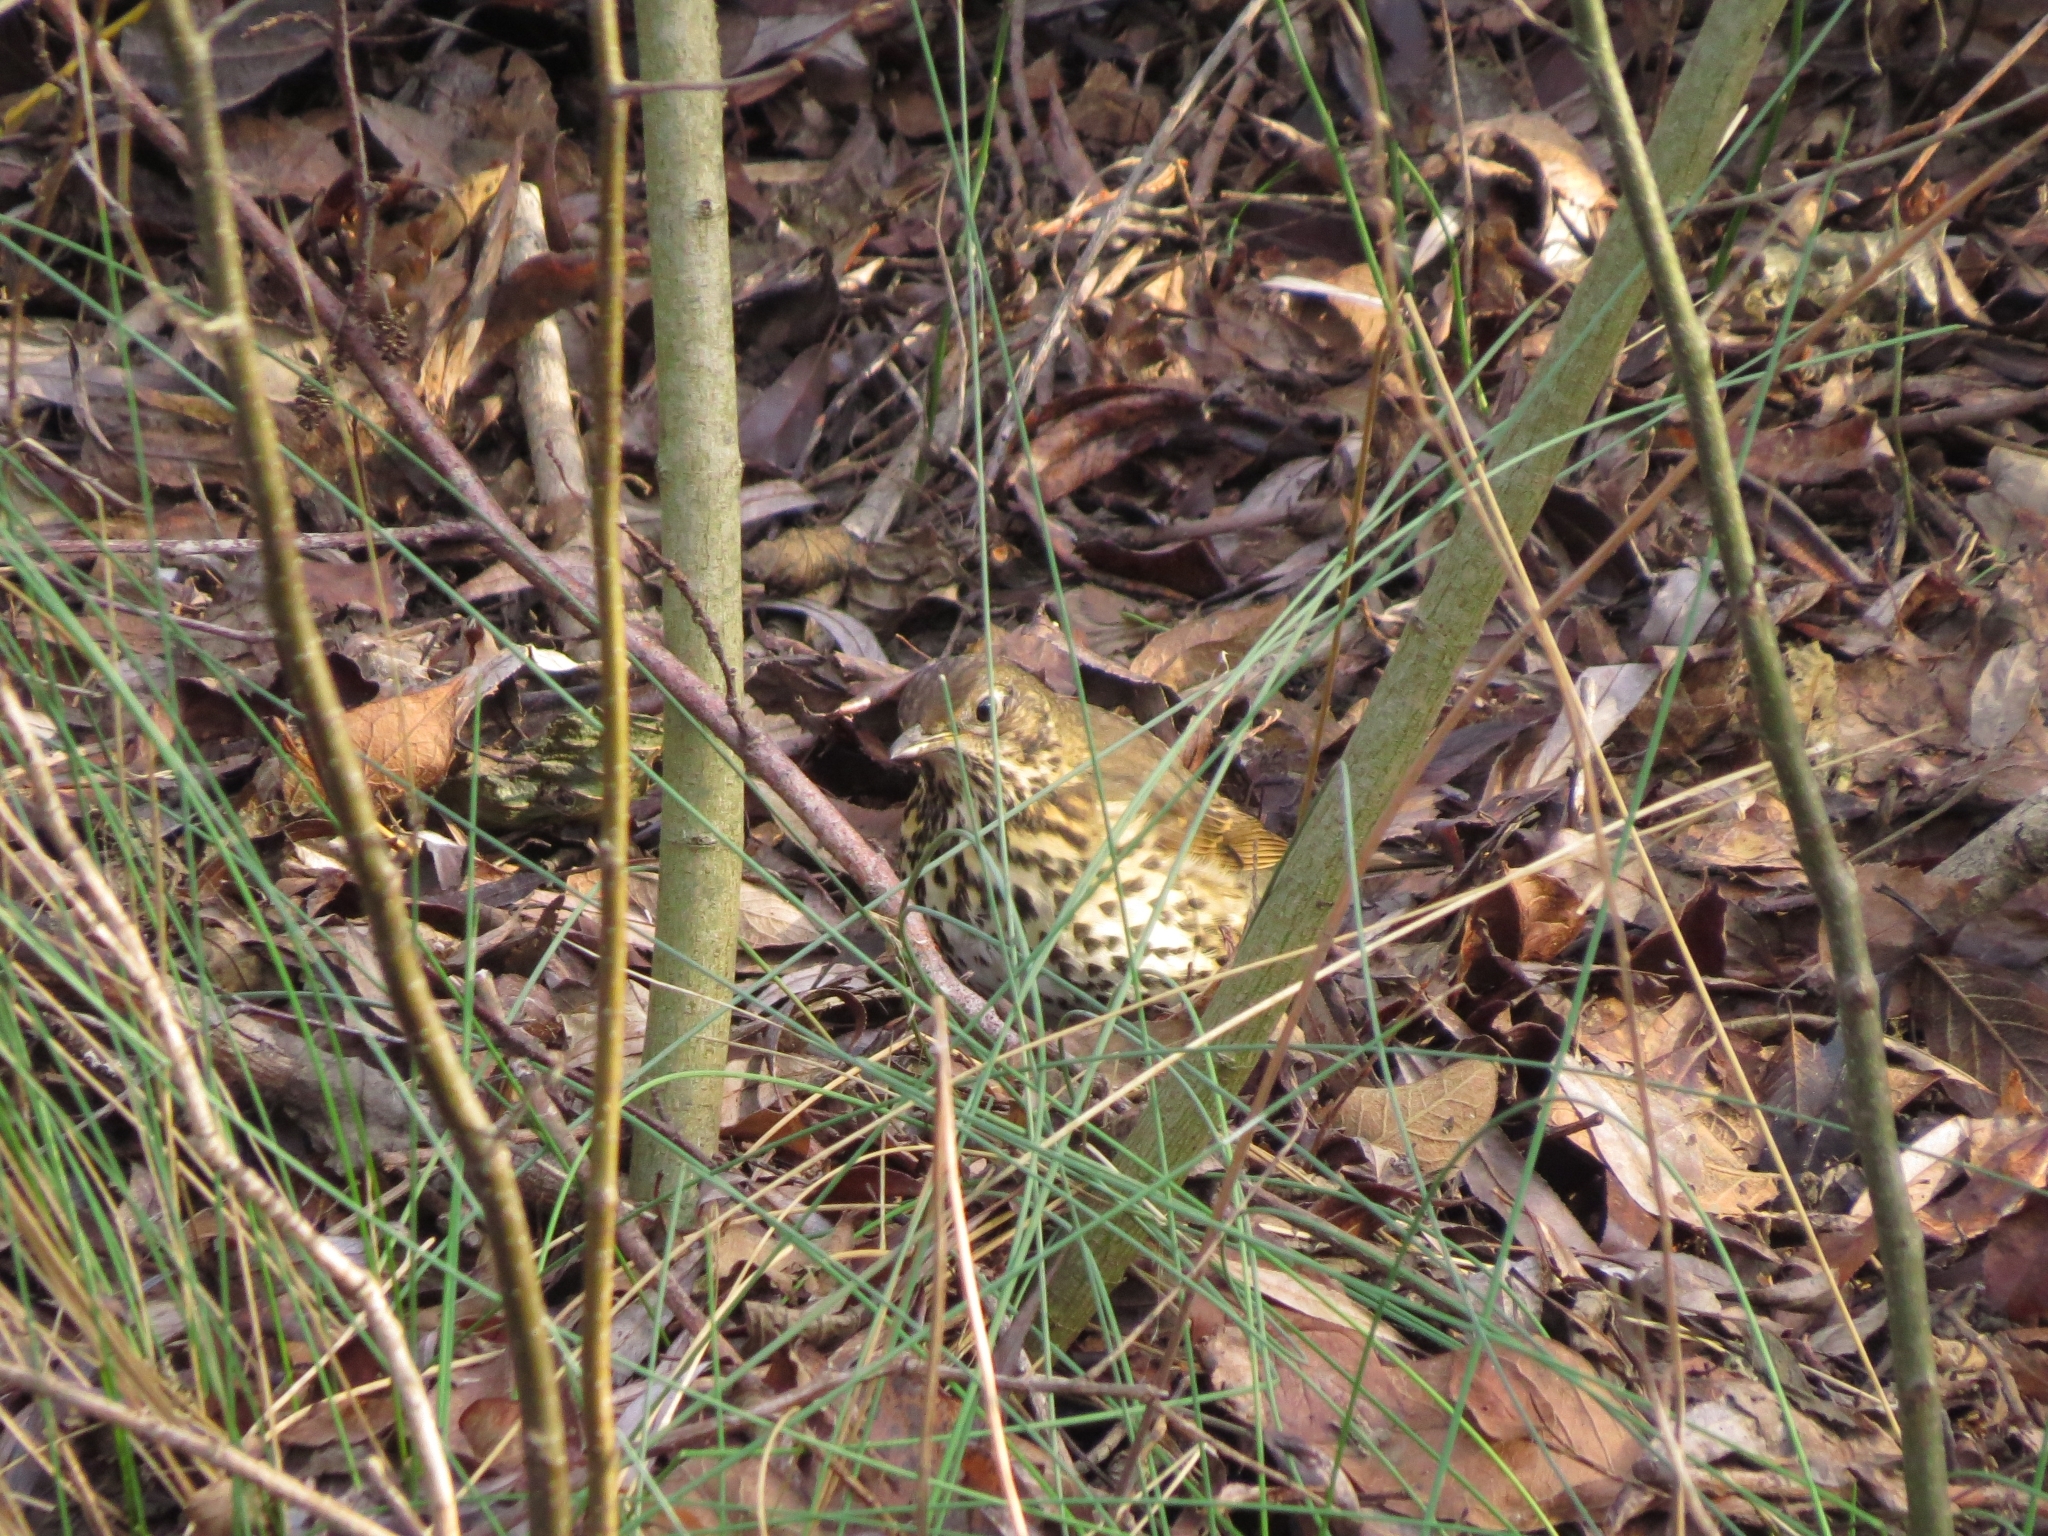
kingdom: Animalia
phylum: Chordata
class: Aves
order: Passeriformes
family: Turdidae
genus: Turdus
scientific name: Turdus philomelos
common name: Song thrush
